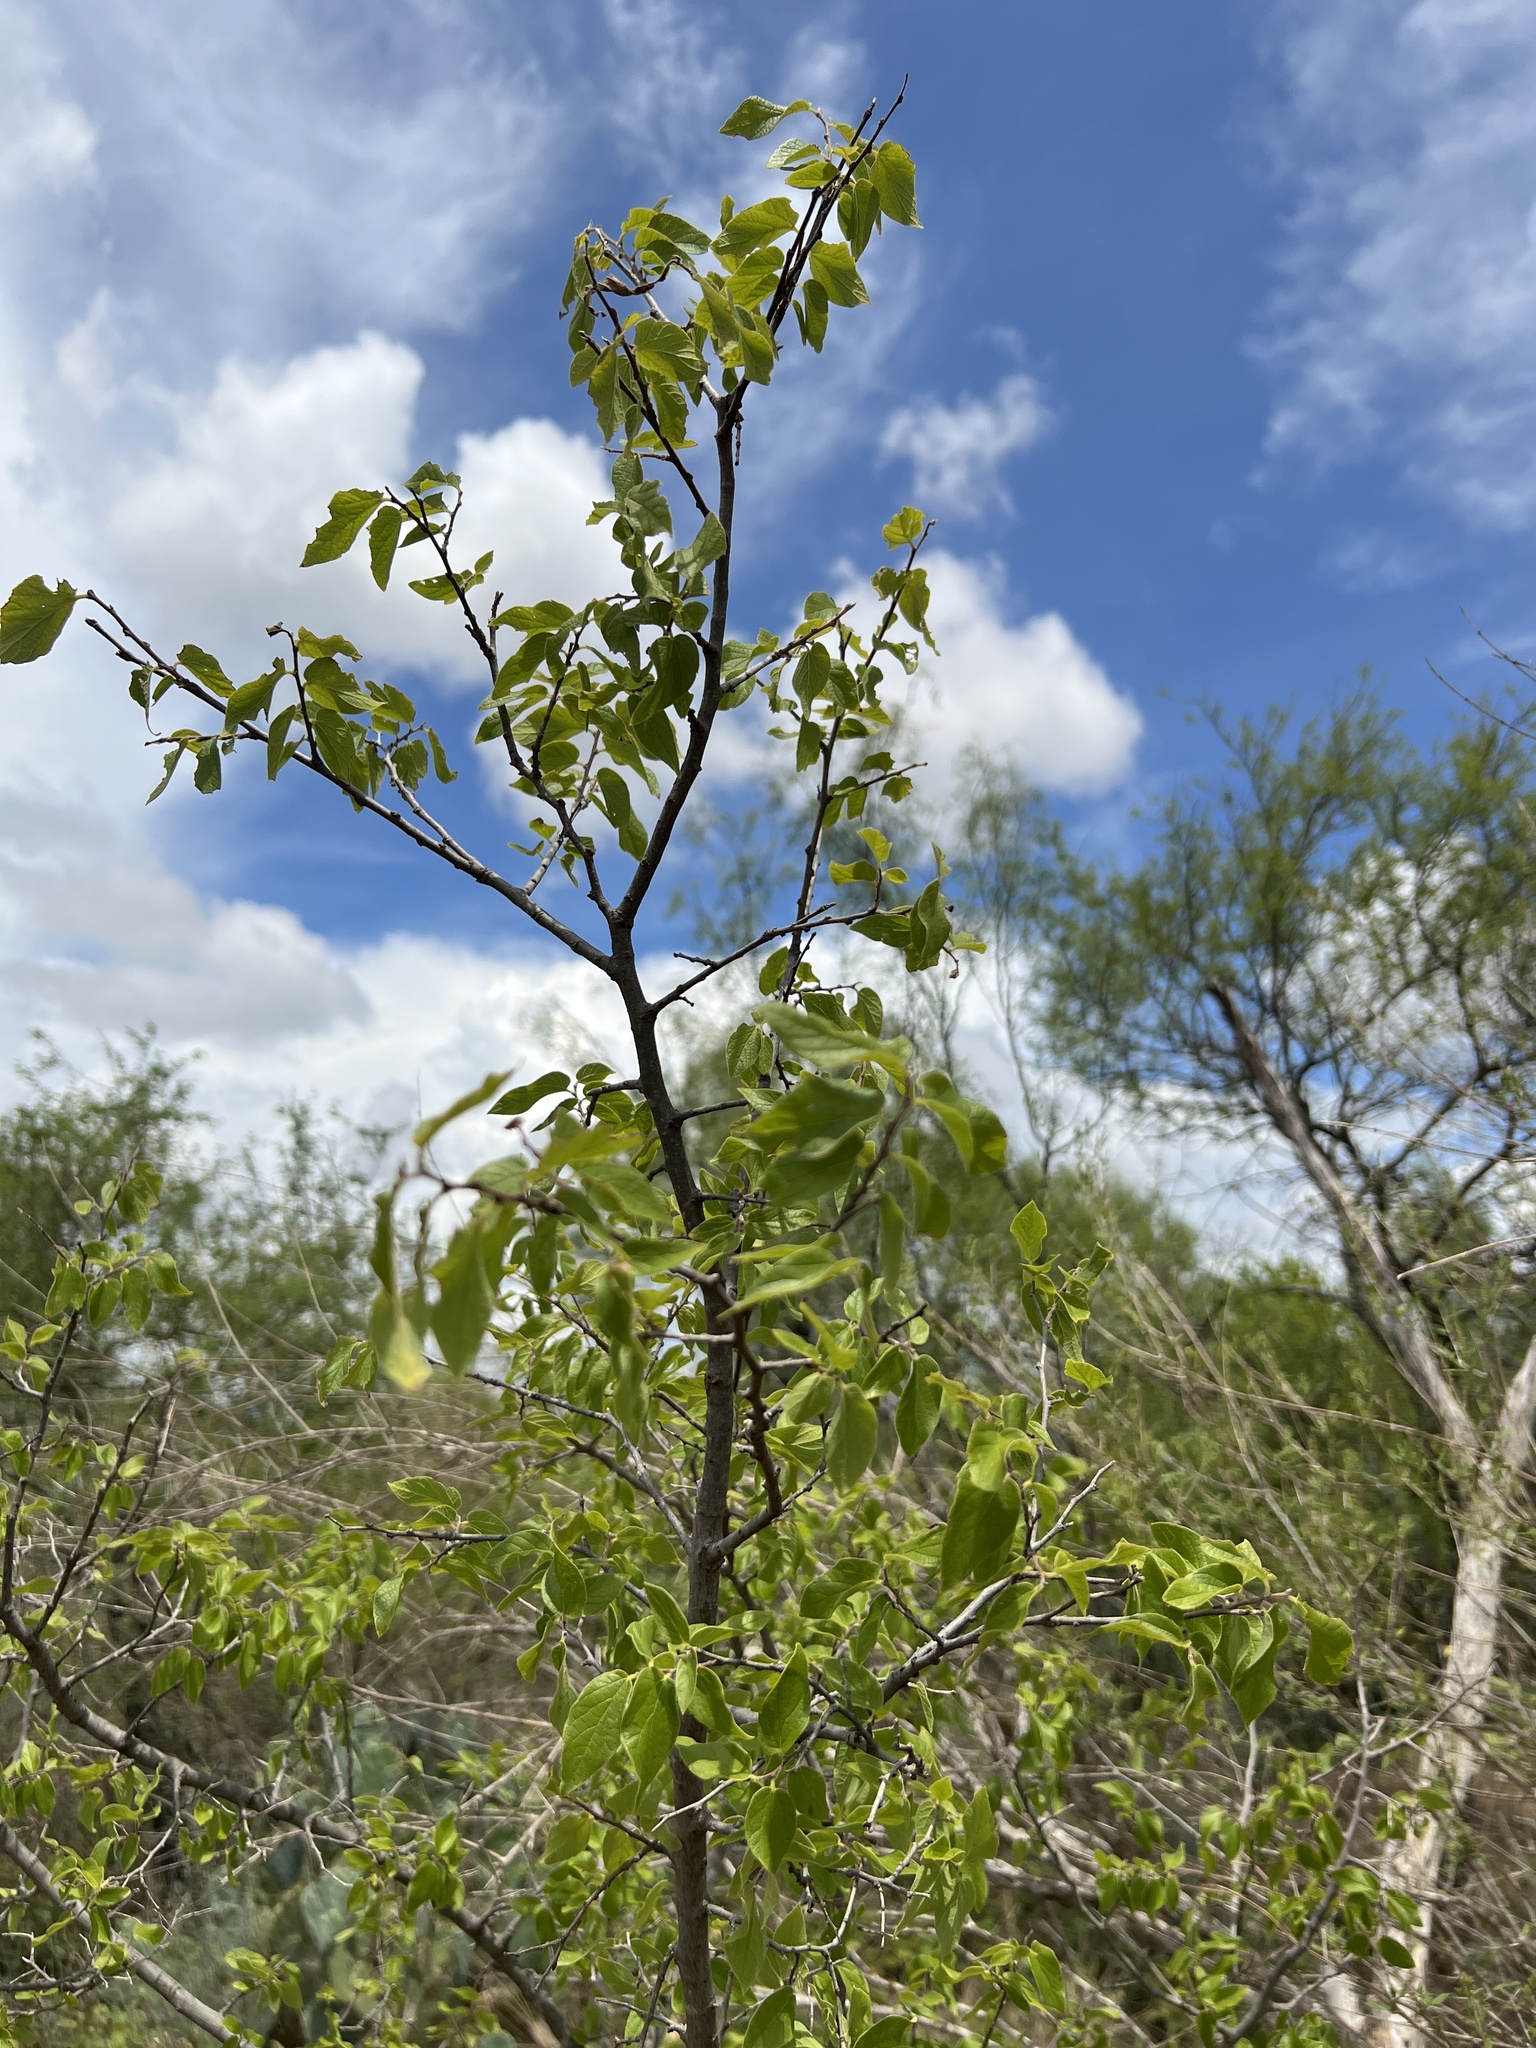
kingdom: Plantae
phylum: Tracheophyta
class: Magnoliopsida
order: Rosales
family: Cannabaceae
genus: Celtis
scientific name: Celtis reticulata
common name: Netleaf hackberry
